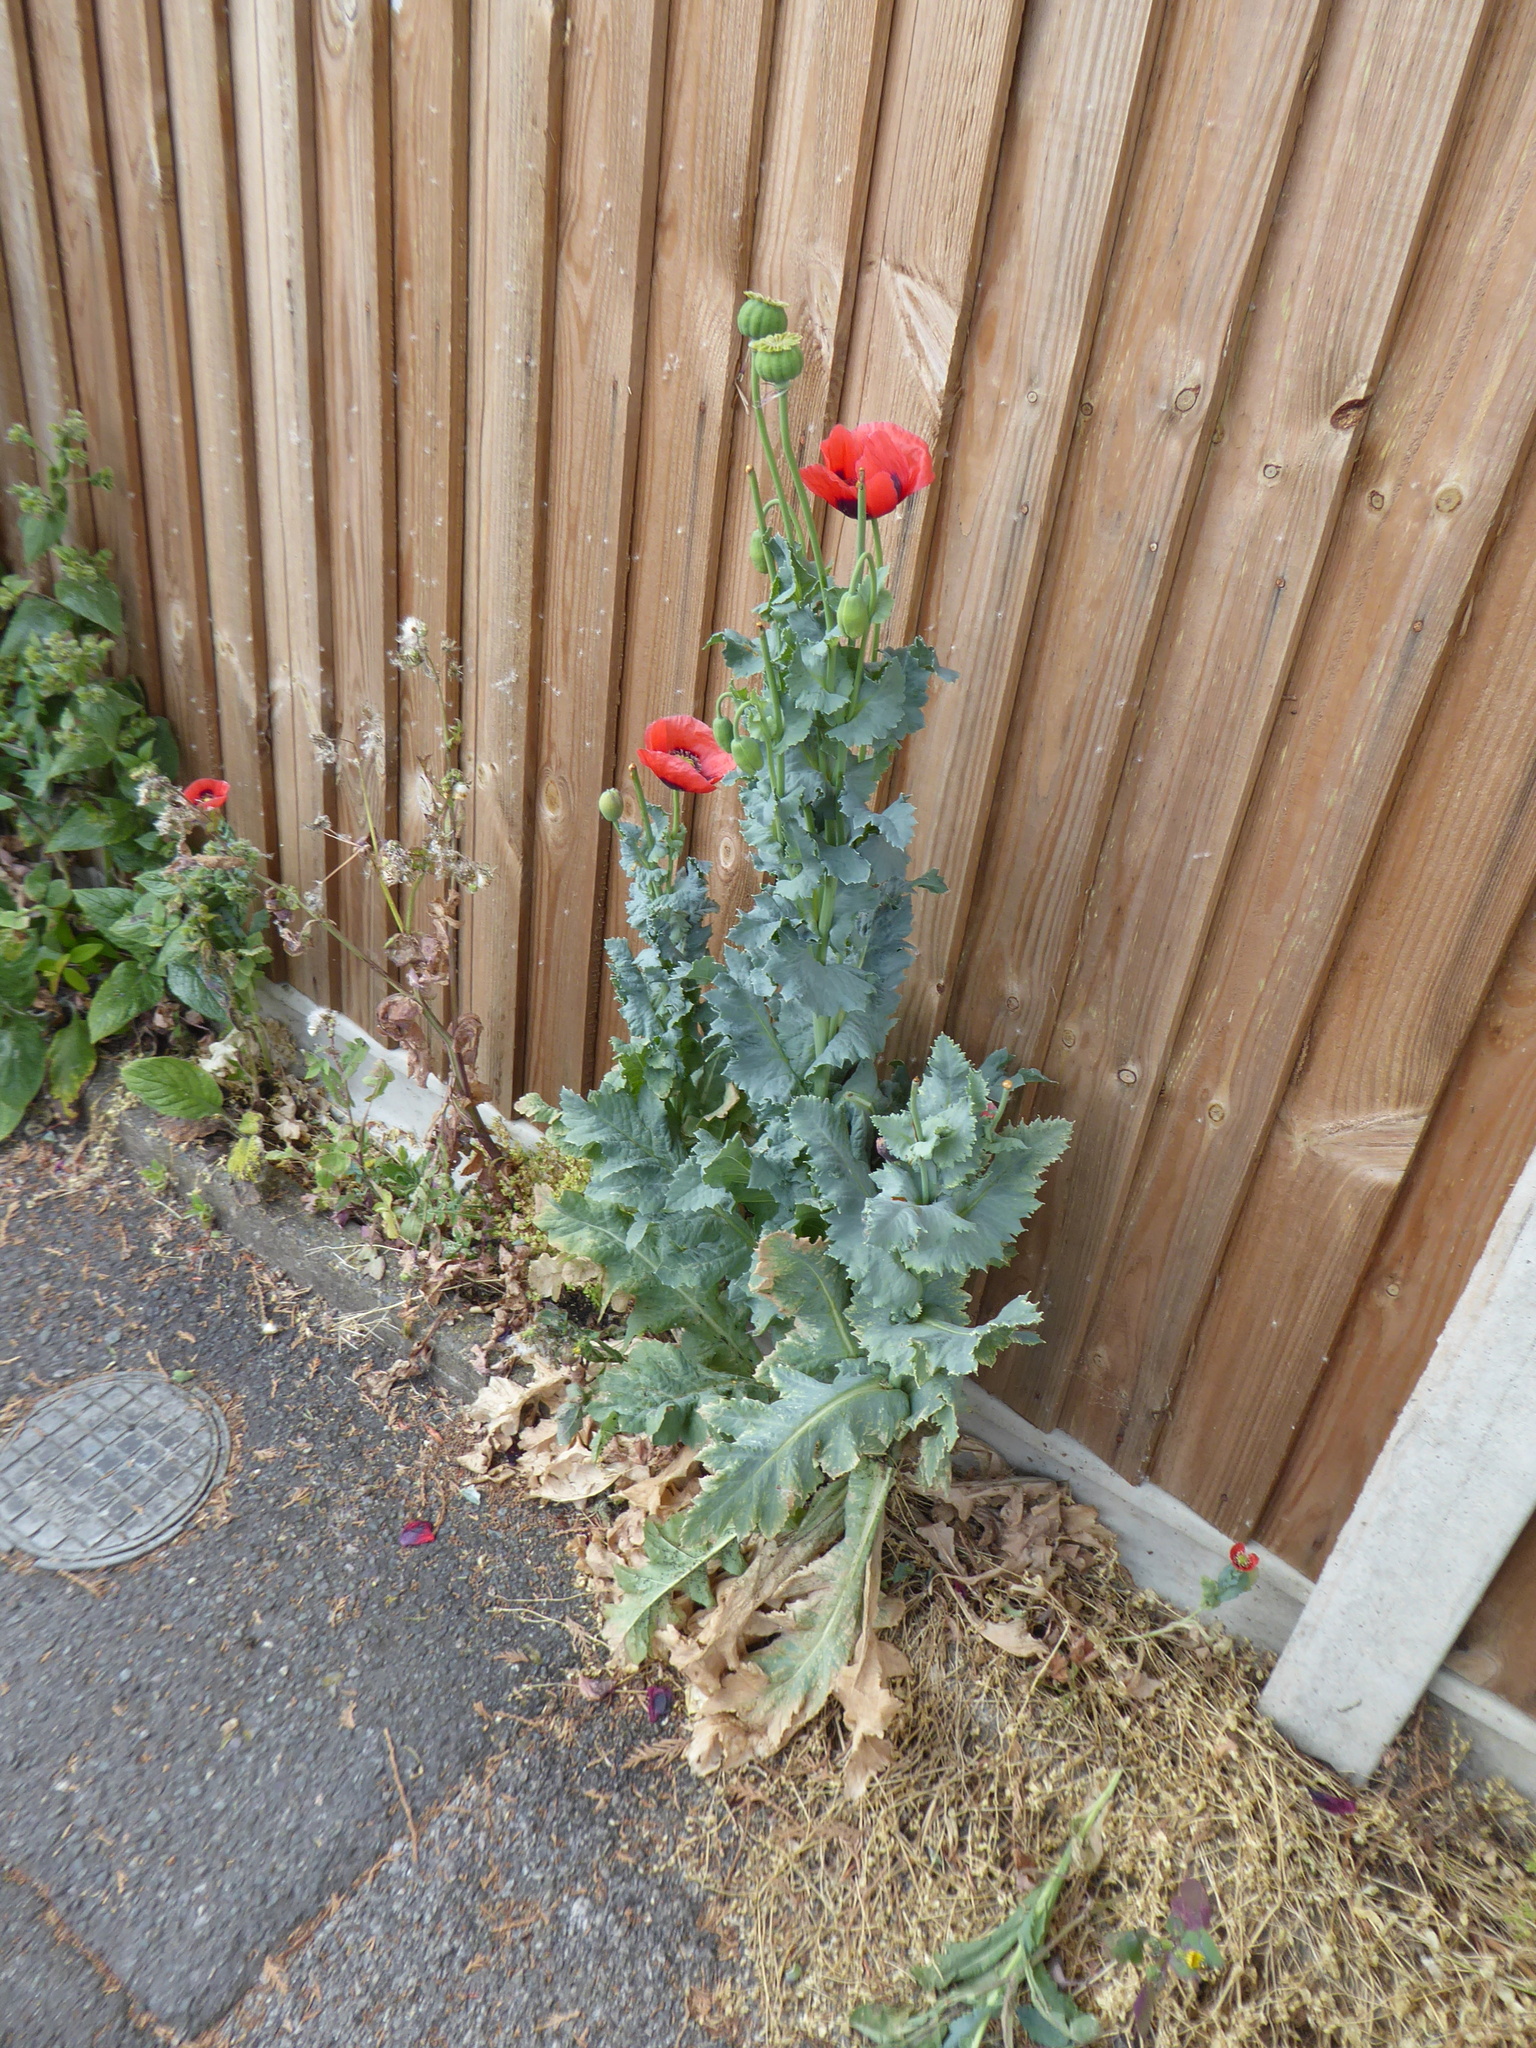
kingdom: Plantae
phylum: Tracheophyta
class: Magnoliopsida
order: Ranunculales
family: Papaveraceae
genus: Papaver
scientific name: Papaver somniferum
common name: Opium poppy
